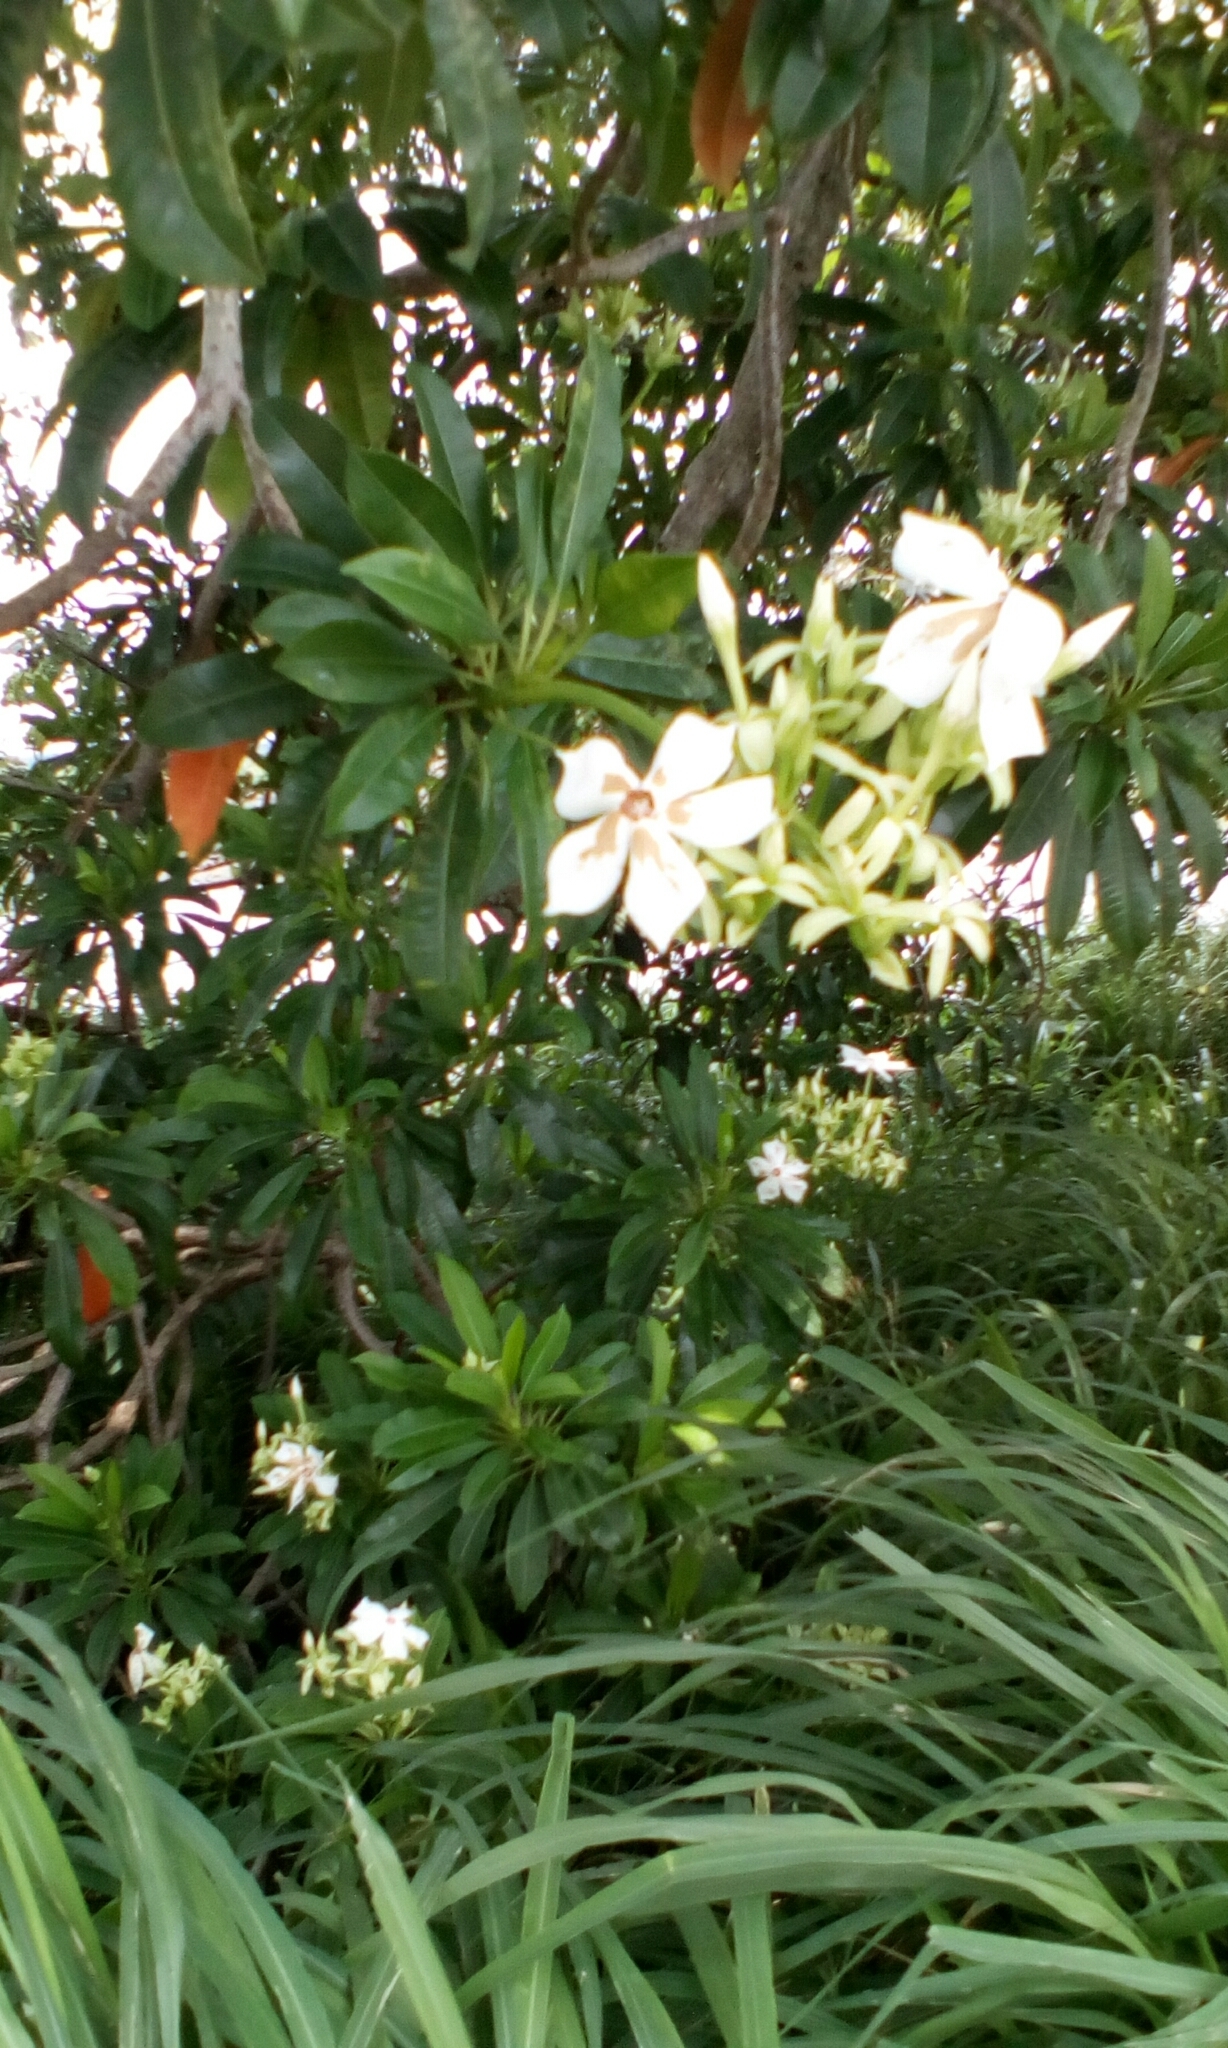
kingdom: Plantae
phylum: Tracheophyta
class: Magnoliopsida
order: Gentianales
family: Apocynaceae
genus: Cerbera
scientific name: Cerbera manghas
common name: Reva
